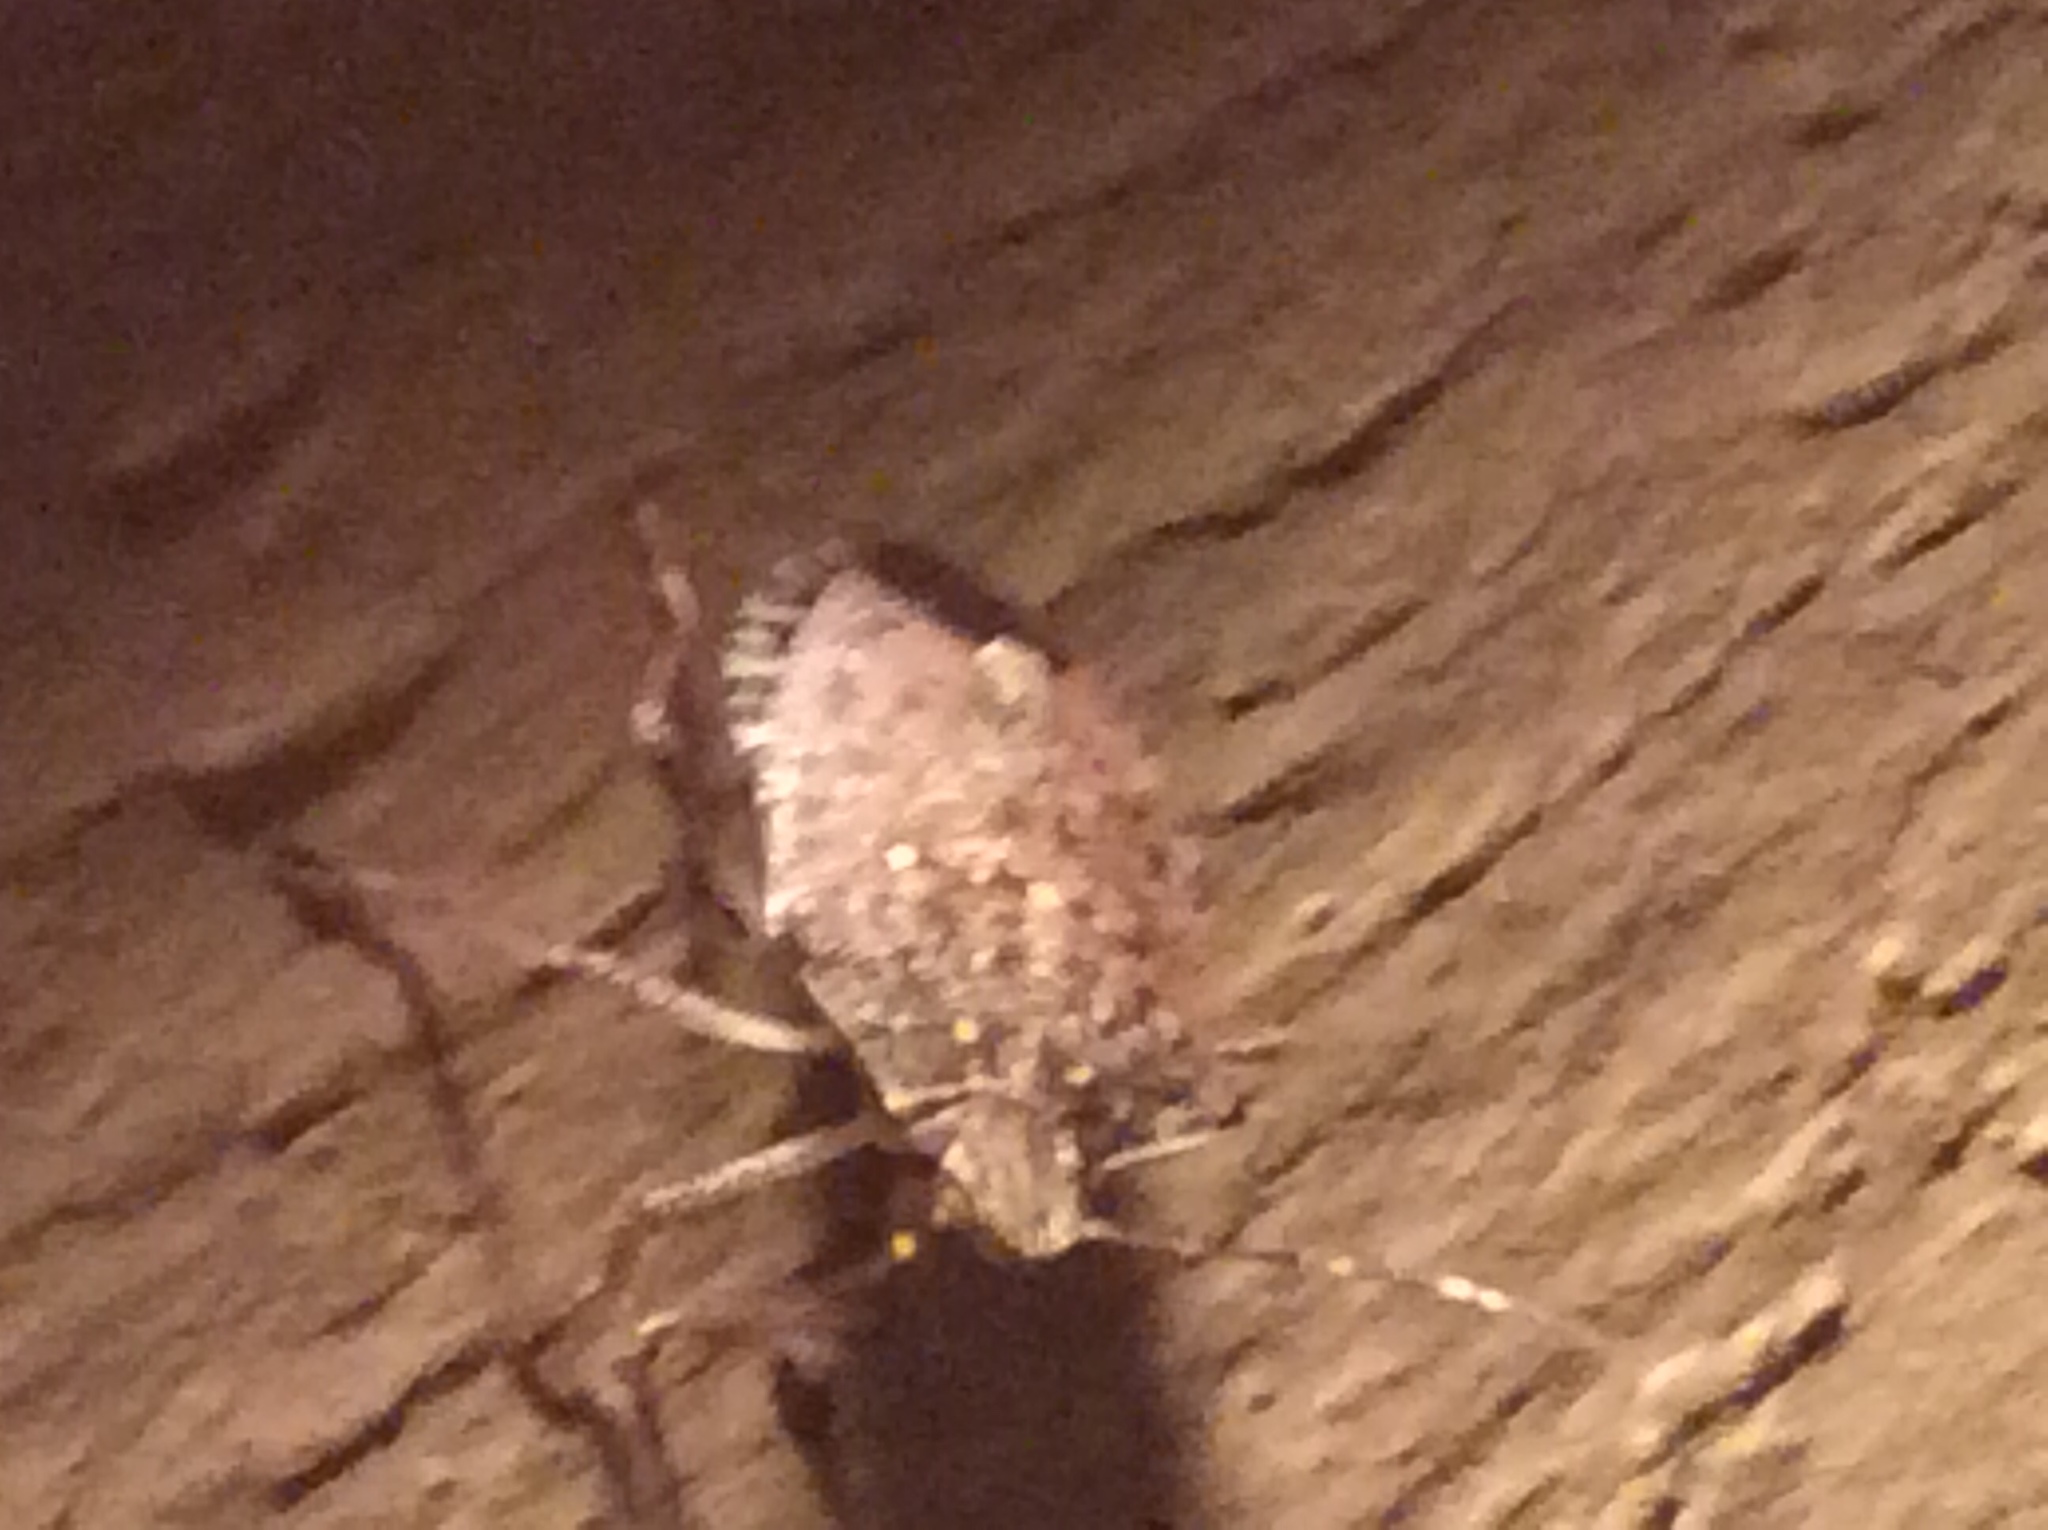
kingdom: Animalia
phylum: Arthropoda
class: Insecta
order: Hemiptera
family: Pentatomidae
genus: Halyomorpha
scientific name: Halyomorpha halys
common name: Brown marmorated stink bug
